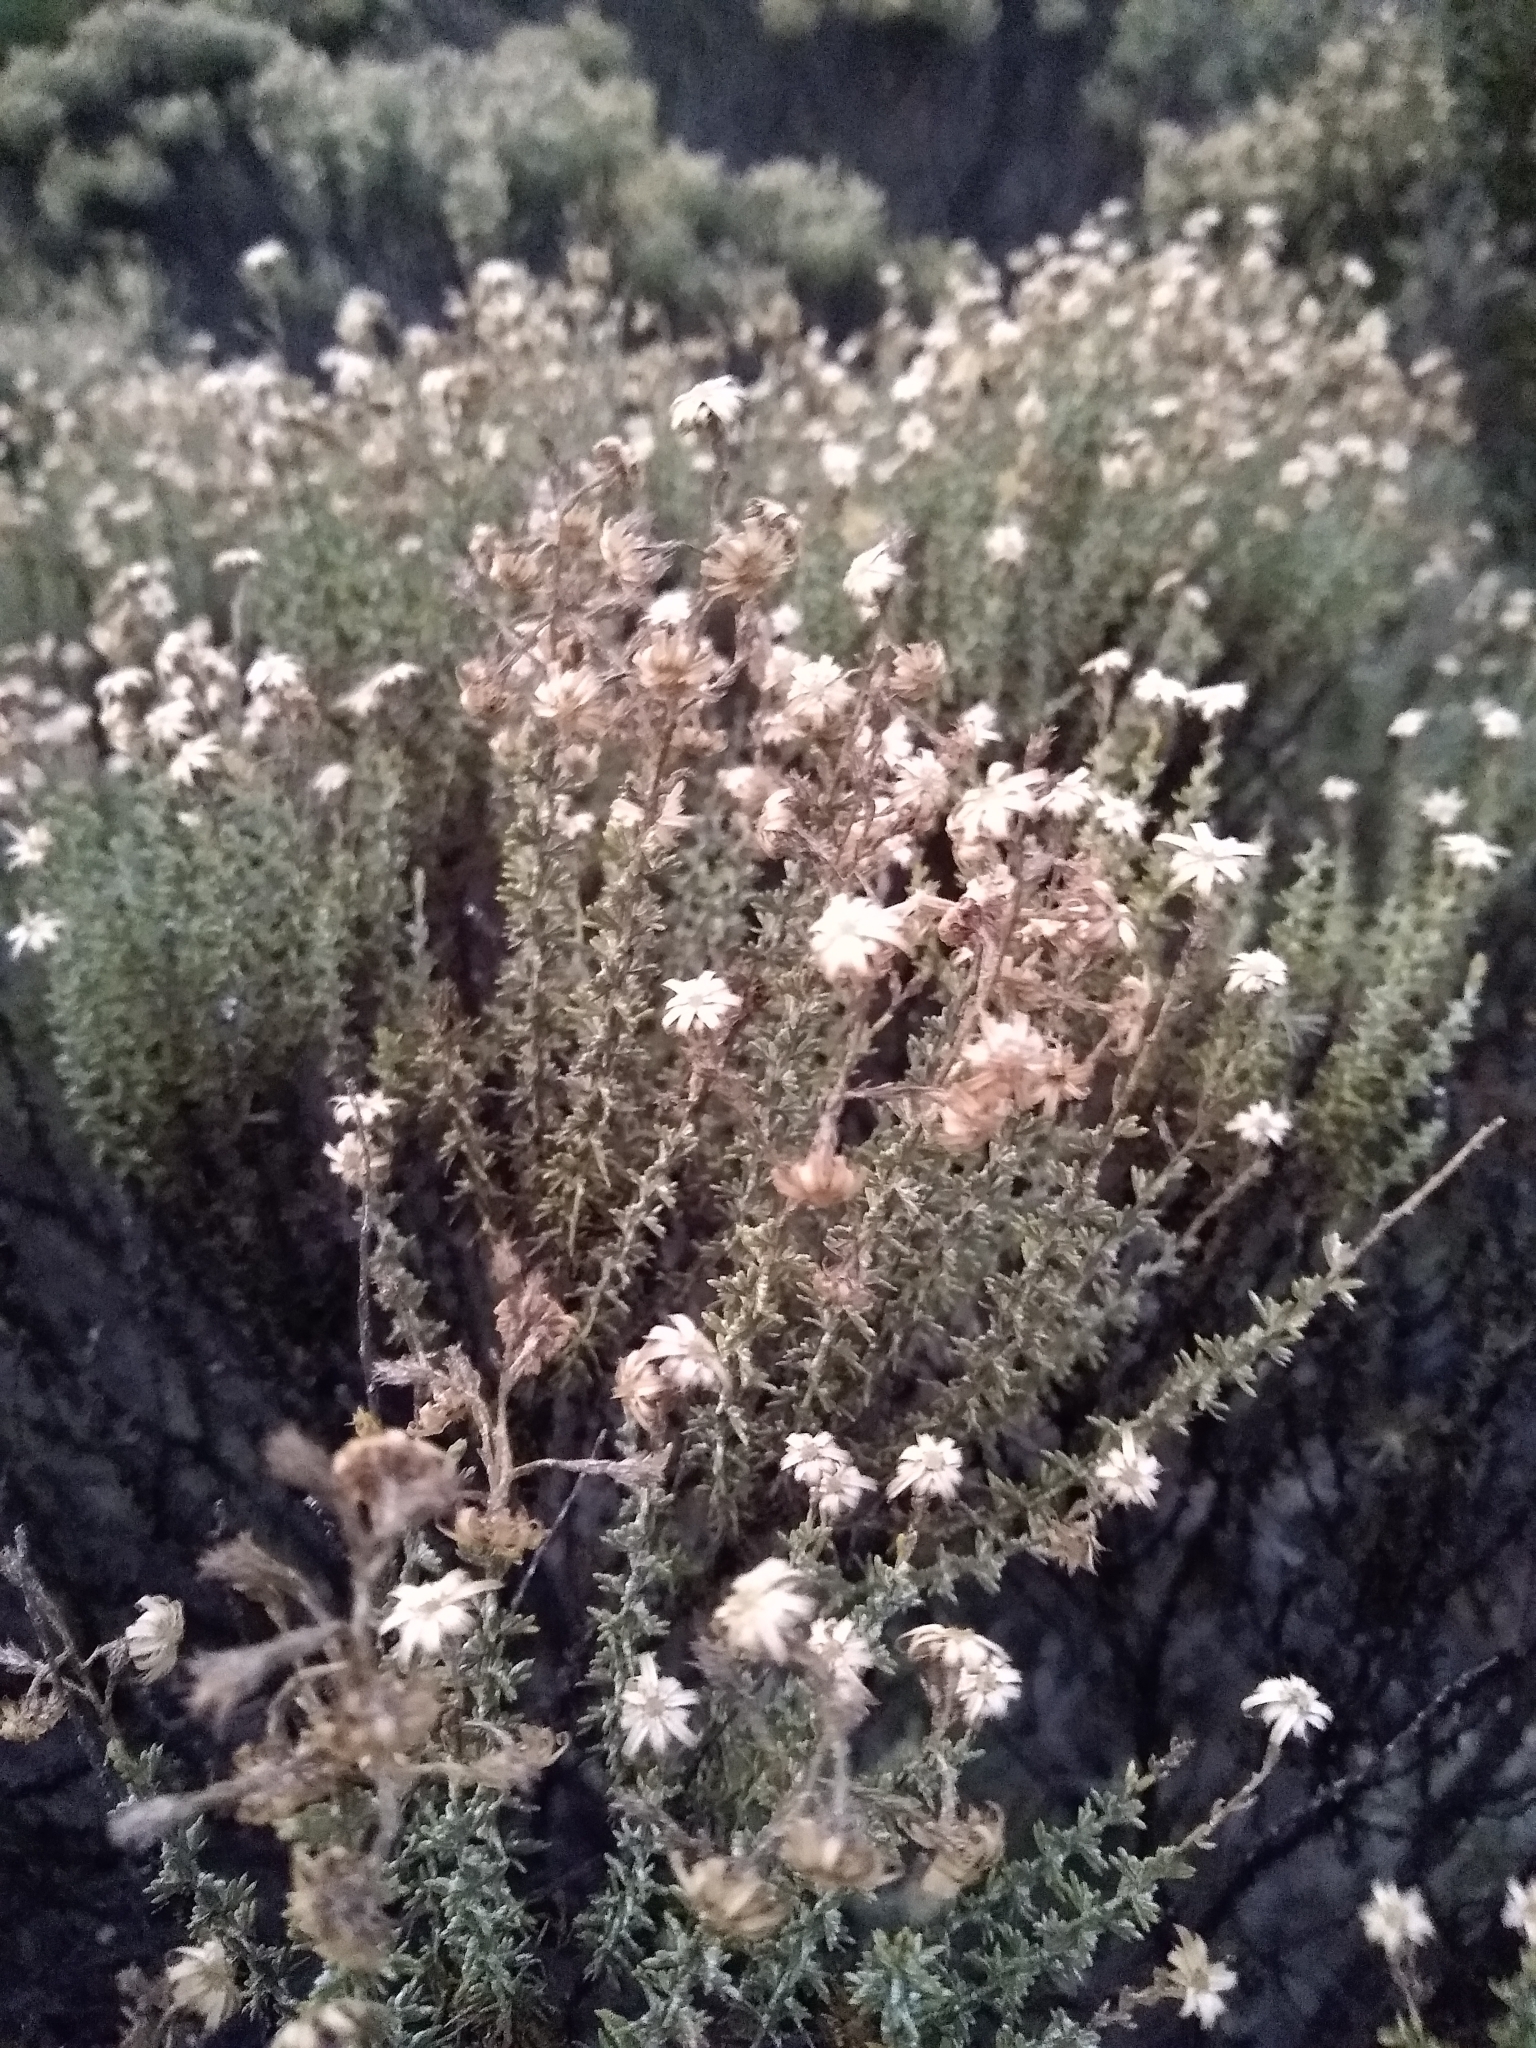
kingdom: Plantae
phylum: Tracheophyta
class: Magnoliopsida
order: Asterales
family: Asteraceae
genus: Ericameria
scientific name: Ericameria ericoides
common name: California goldenbush
